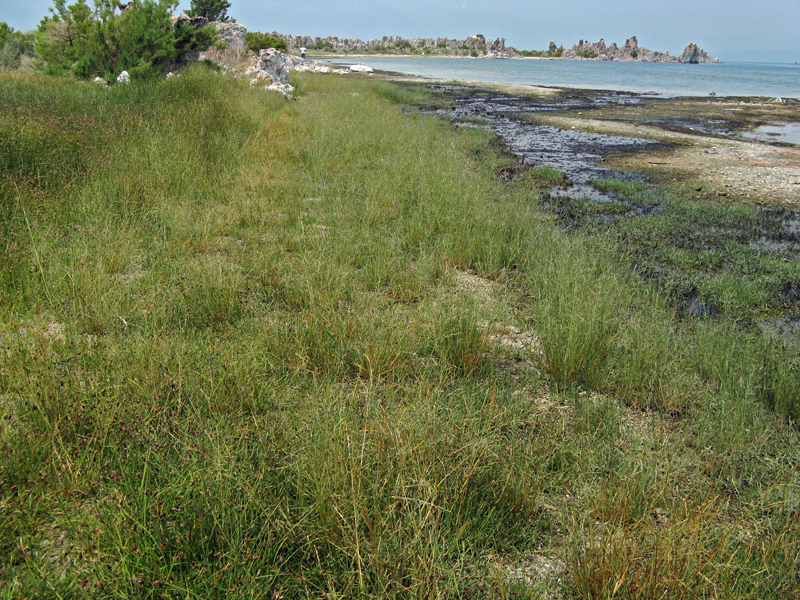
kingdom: Plantae
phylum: Tracheophyta
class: Liliopsida
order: Poales
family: Poaceae
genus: Puccinellia
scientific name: Puccinellia nuttalliana
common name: Nuttall's alkali grass
